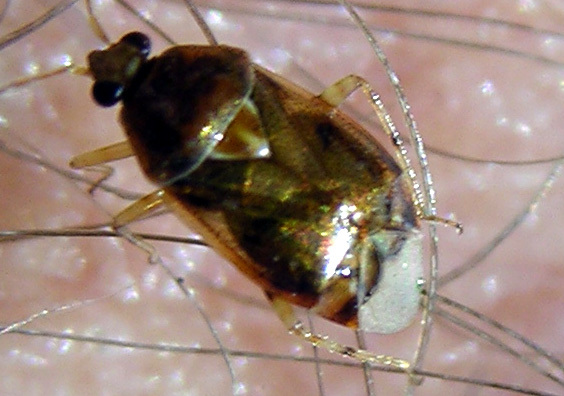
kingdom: Animalia
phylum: Arthropoda
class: Insecta
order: Hemiptera
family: Miridae
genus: Deraeocoris
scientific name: Deraeocoris lutescens
